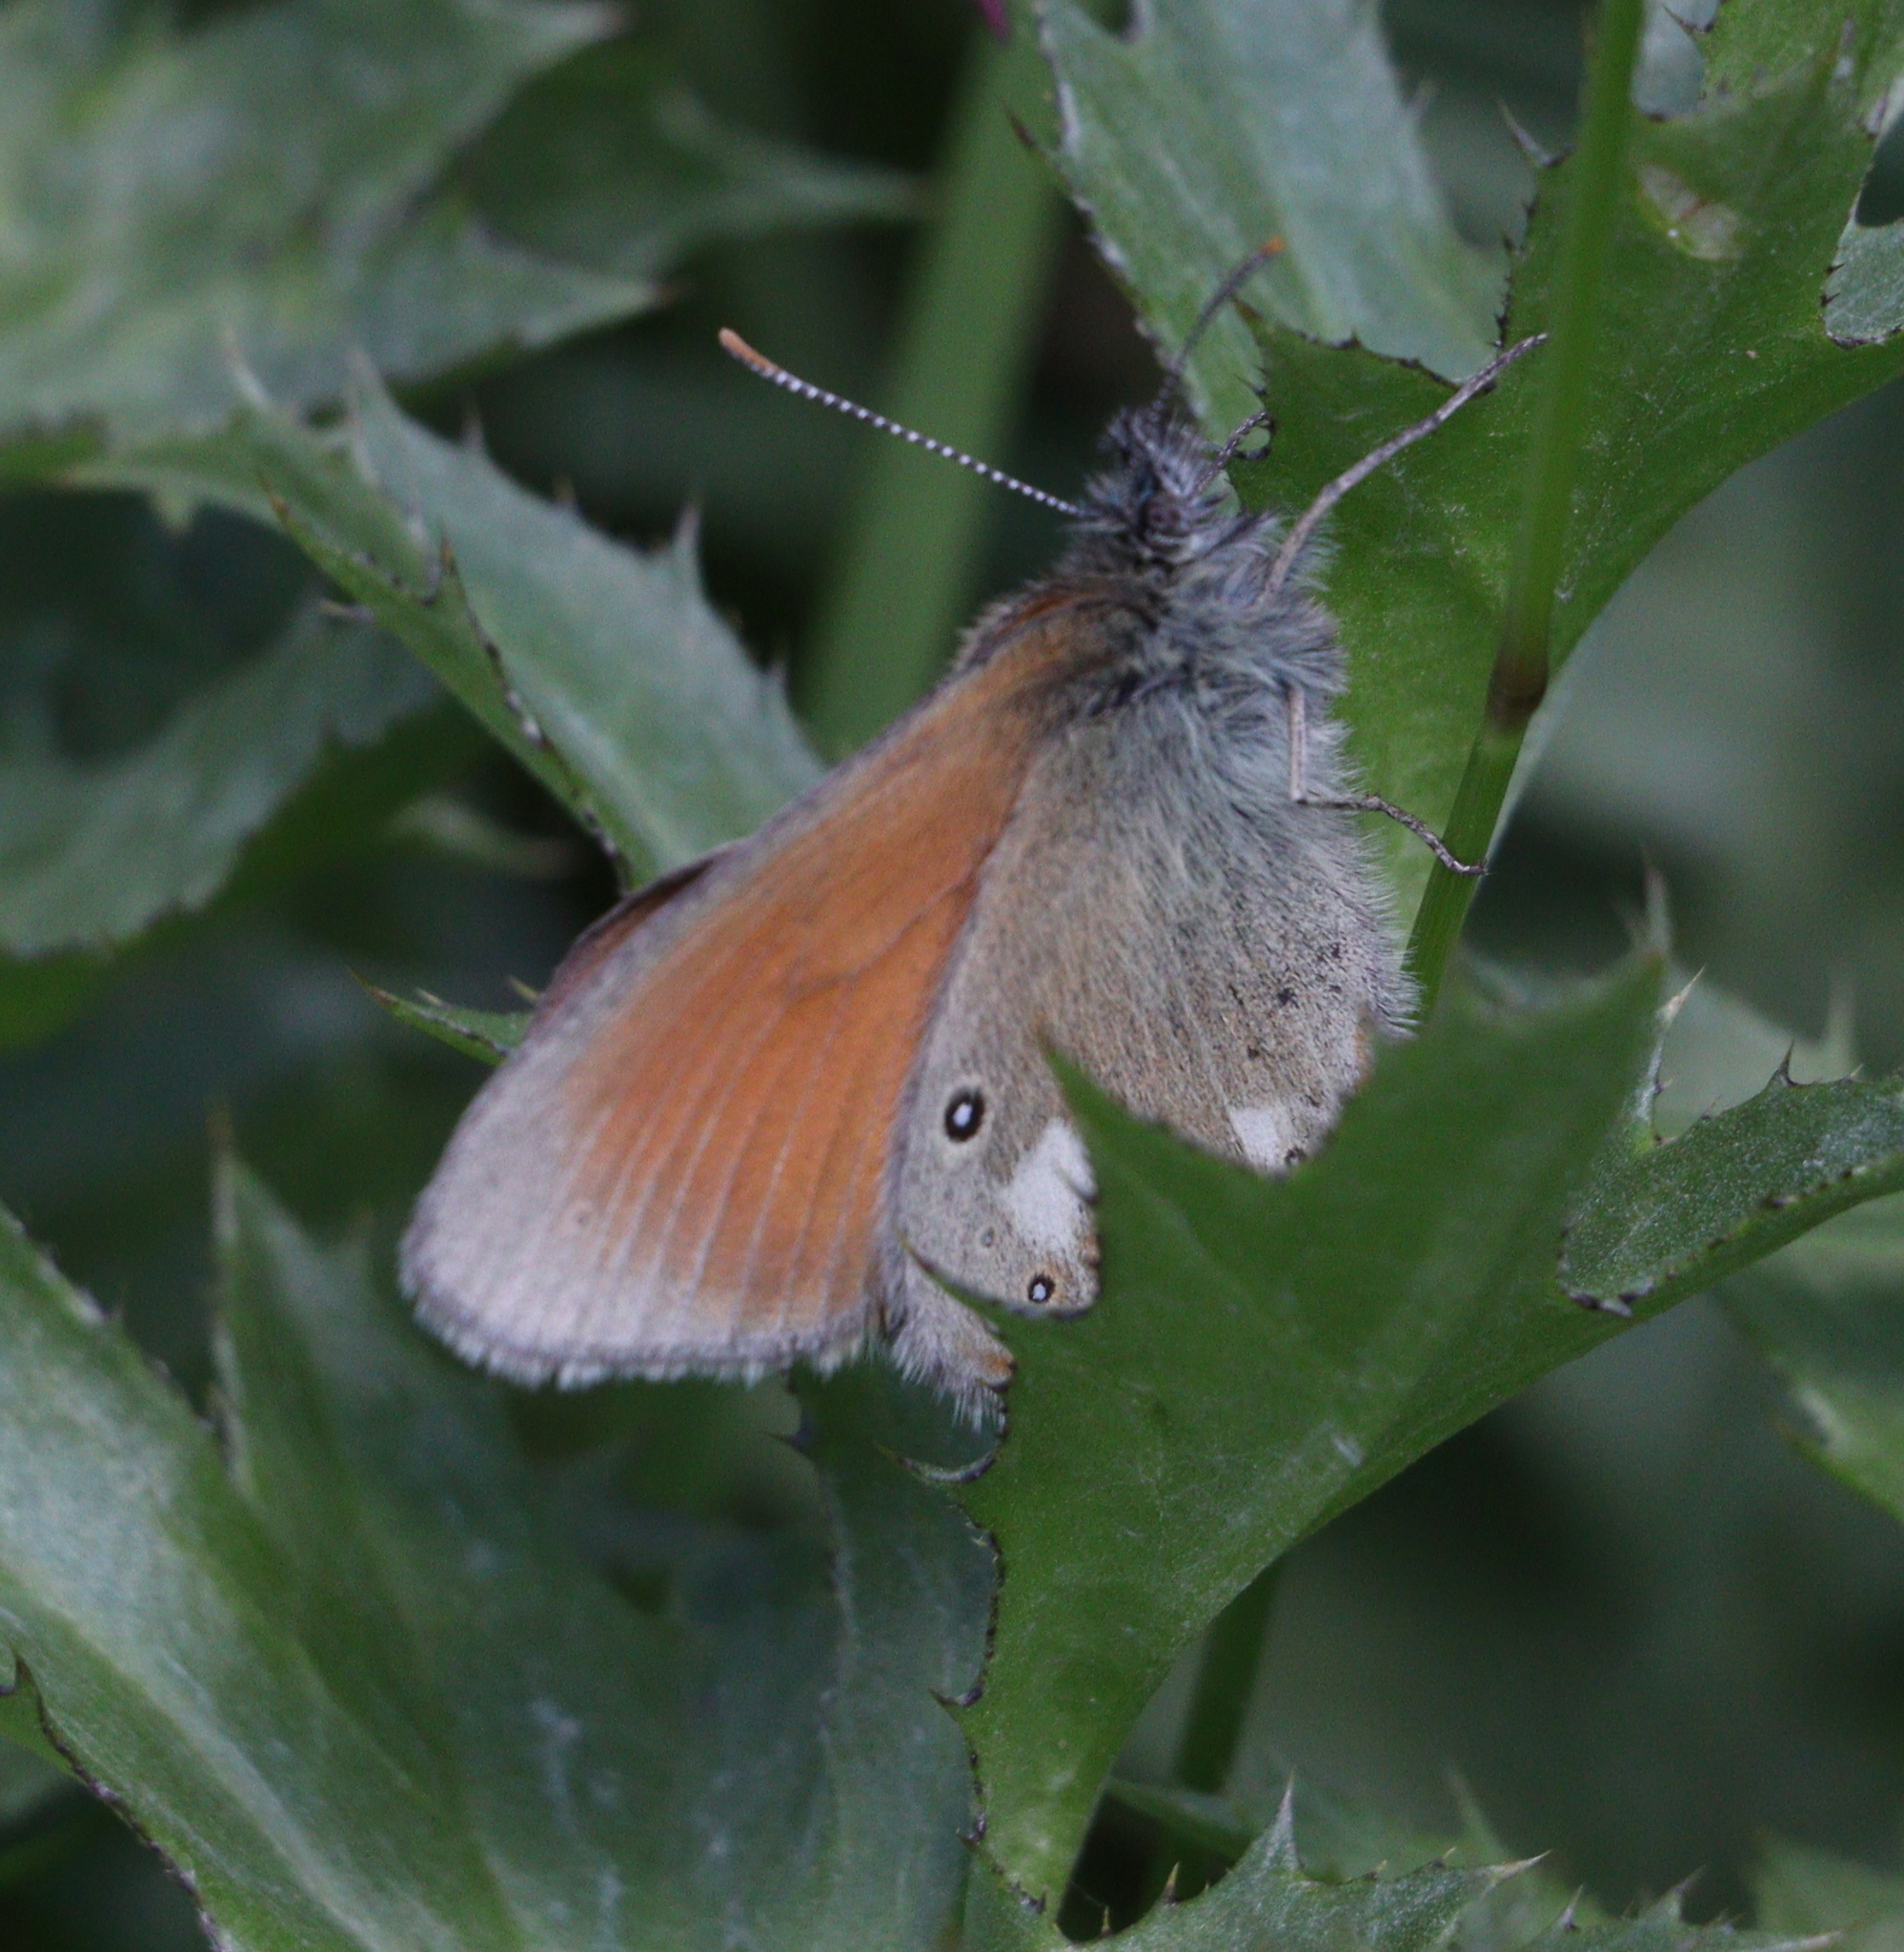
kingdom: Animalia
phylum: Arthropoda
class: Insecta
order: Lepidoptera
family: Nymphalidae
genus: Coenonympha
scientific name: Coenonympha iphis
